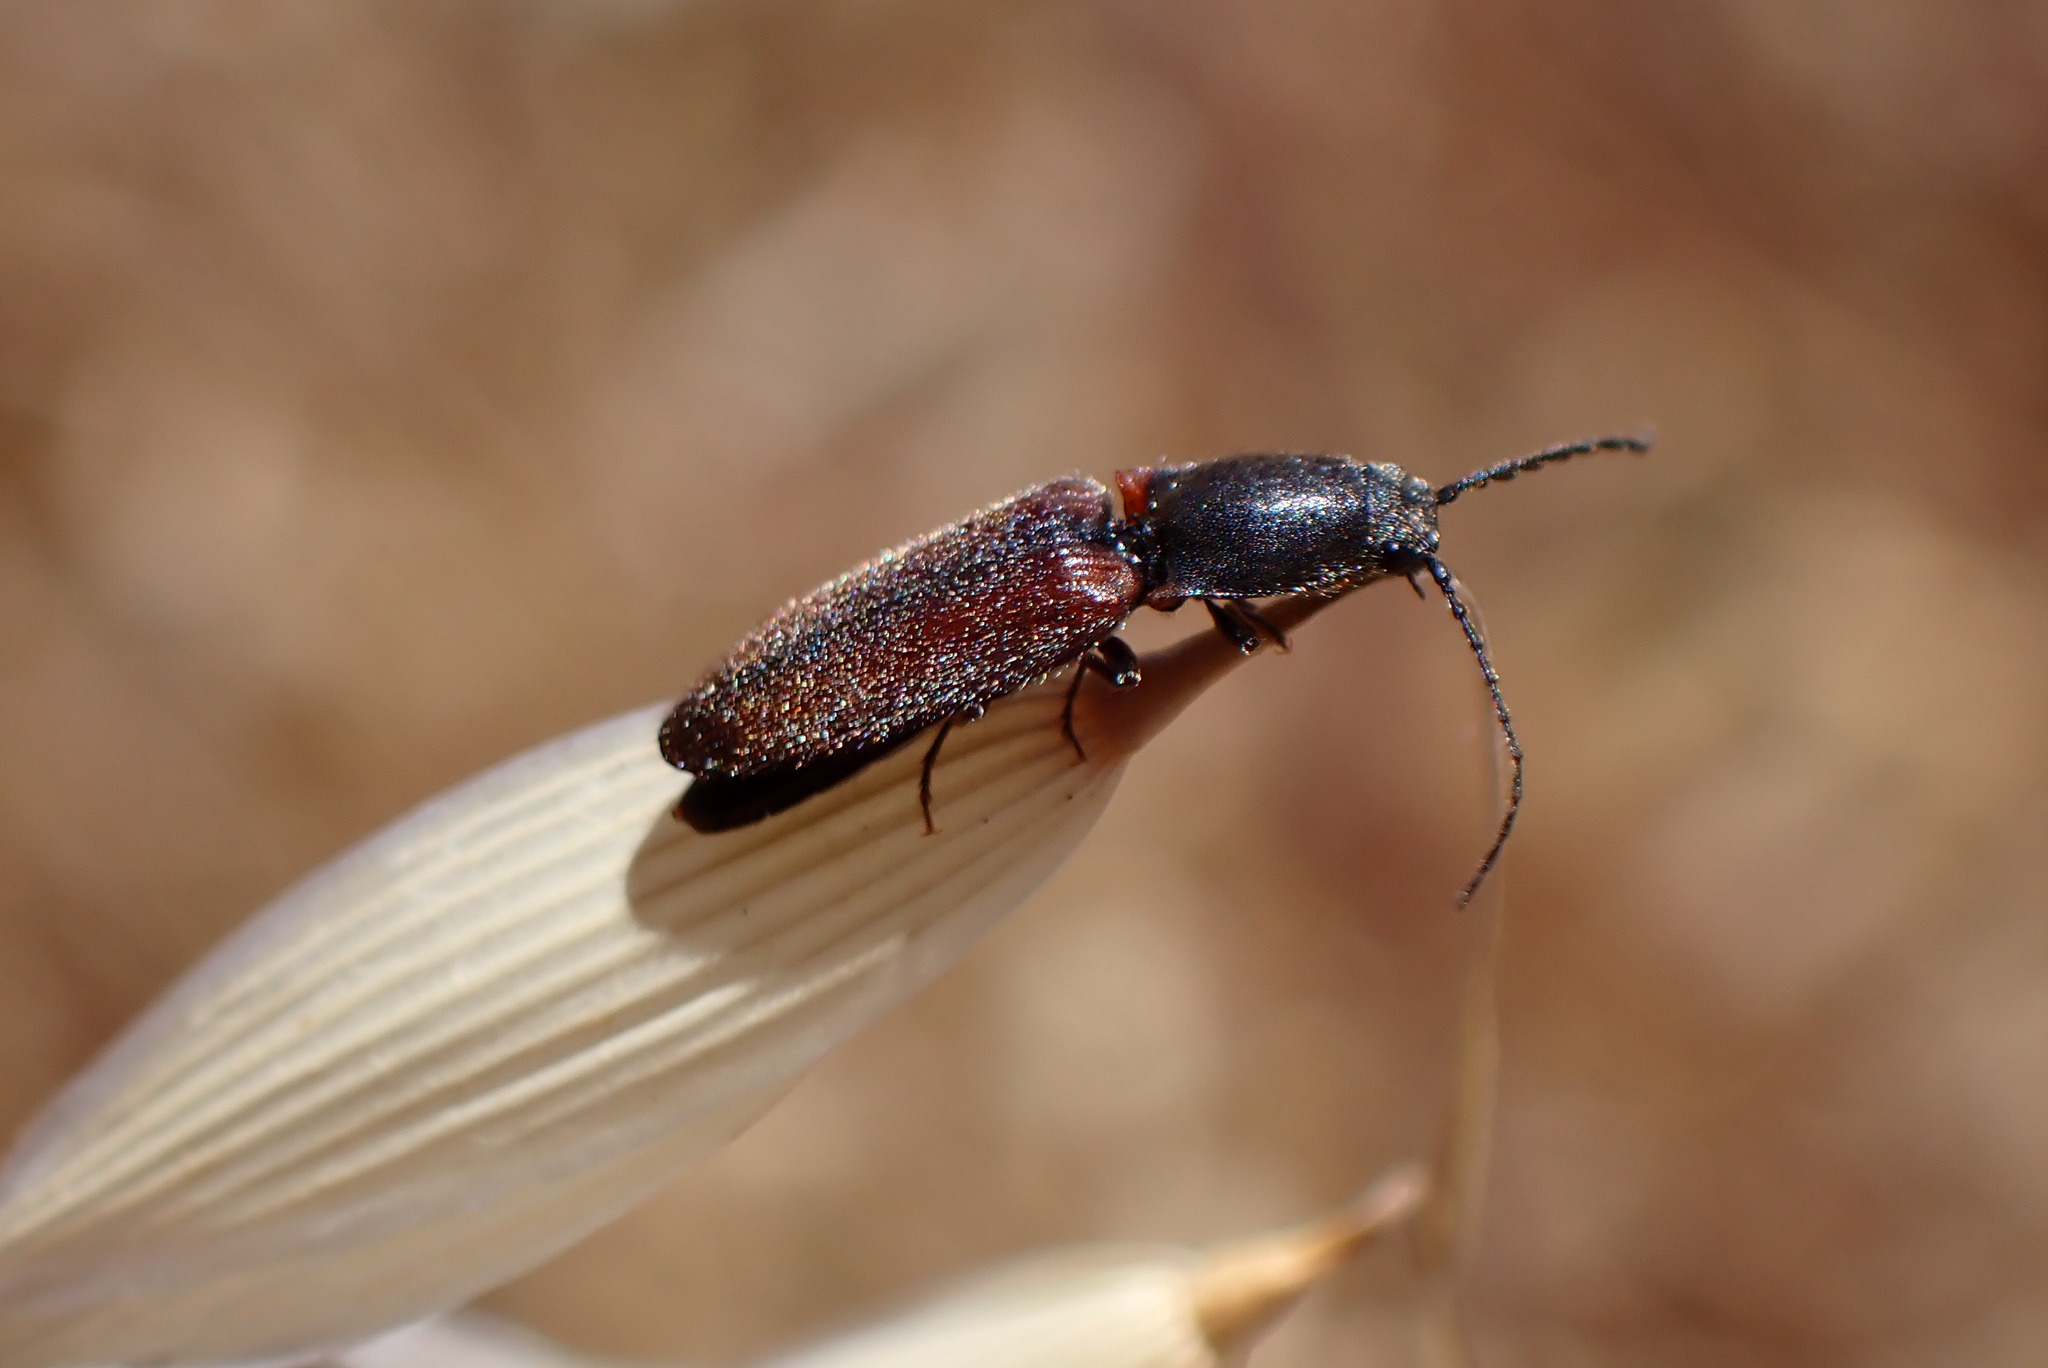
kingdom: Animalia
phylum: Arthropoda
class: Insecta
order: Coleoptera
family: Elateridae
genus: Athous
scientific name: Athous imitans
